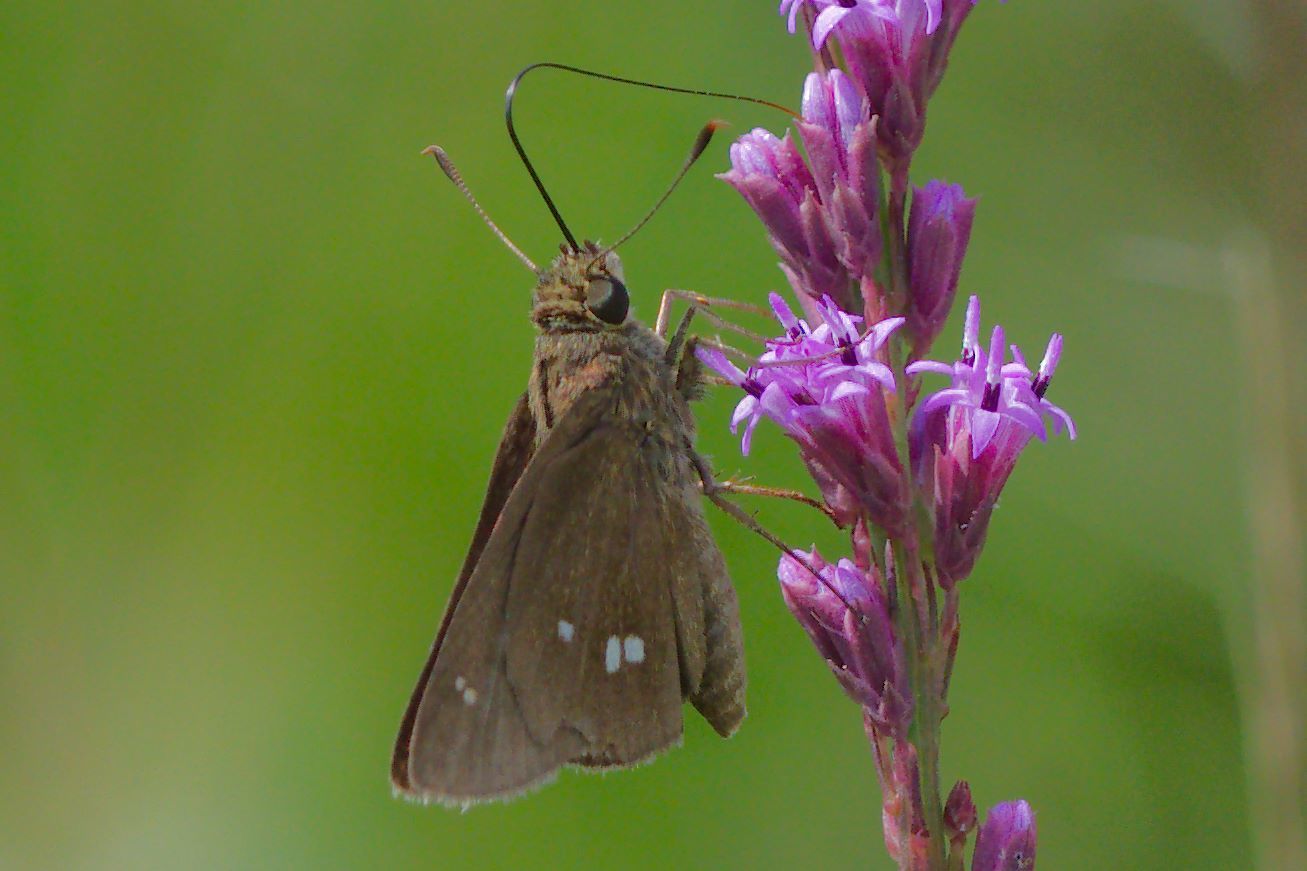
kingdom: Animalia
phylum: Arthropoda
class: Insecta
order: Lepidoptera
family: Hesperiidae
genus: Oligoria
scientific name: Oligoria maculata
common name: Twin-spot skipper
